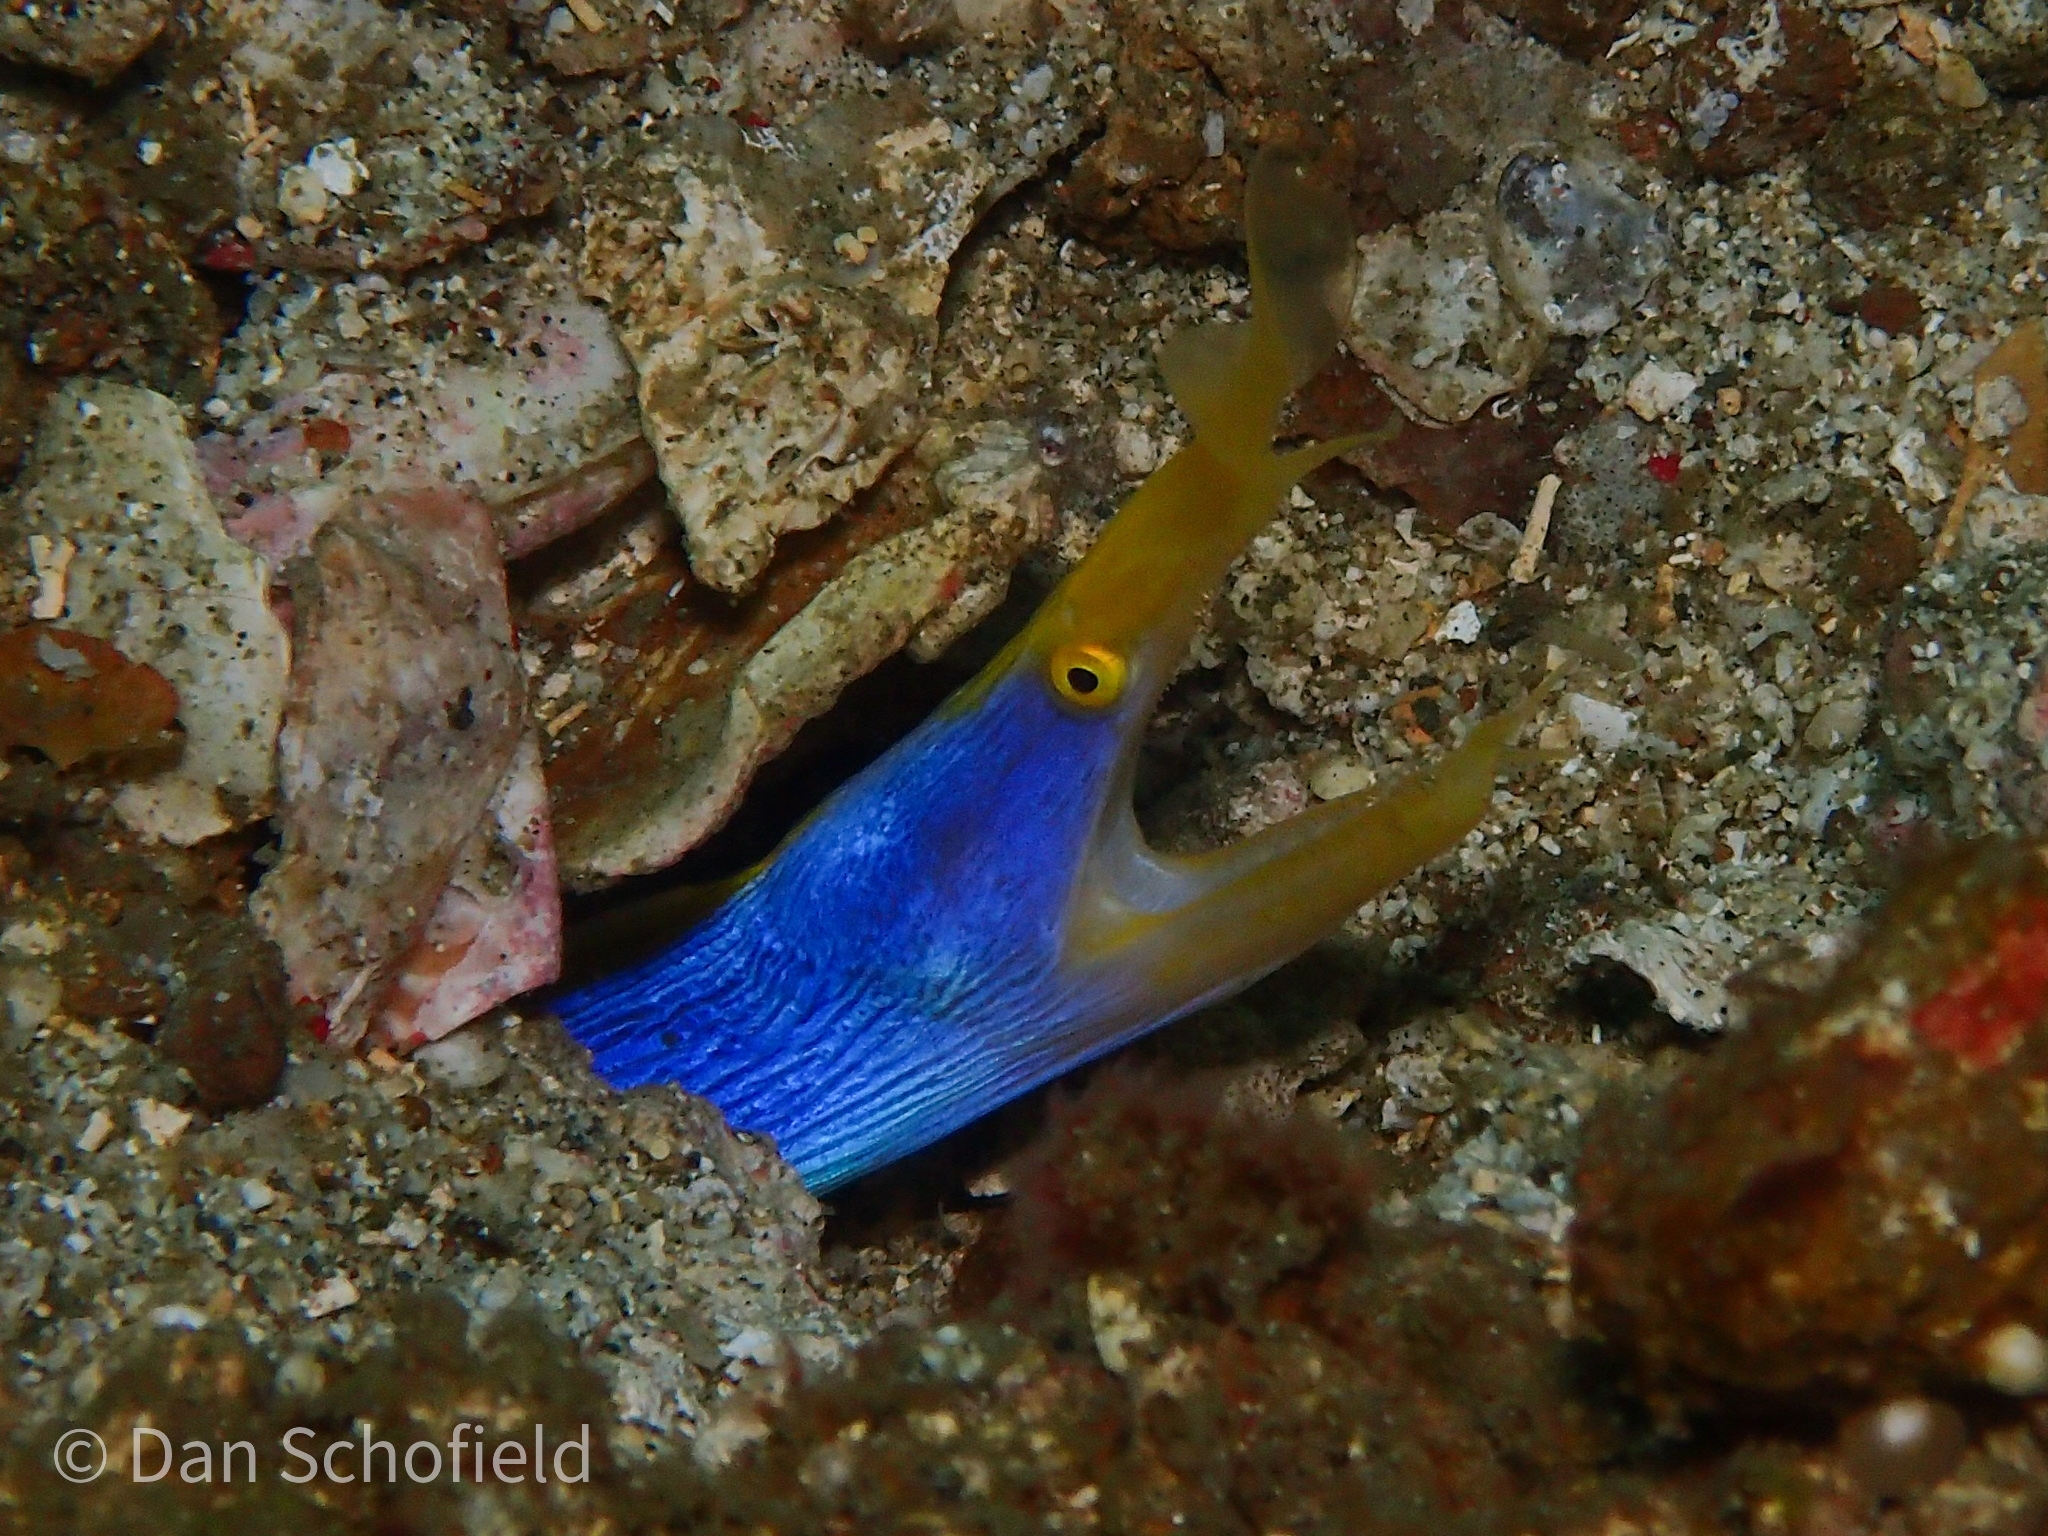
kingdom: Animalia
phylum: Chordata
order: Anguilliformes
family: Muraenidae
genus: Rhinomuraena
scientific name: Rhinomuraena quaesita
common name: Ribbon eel
